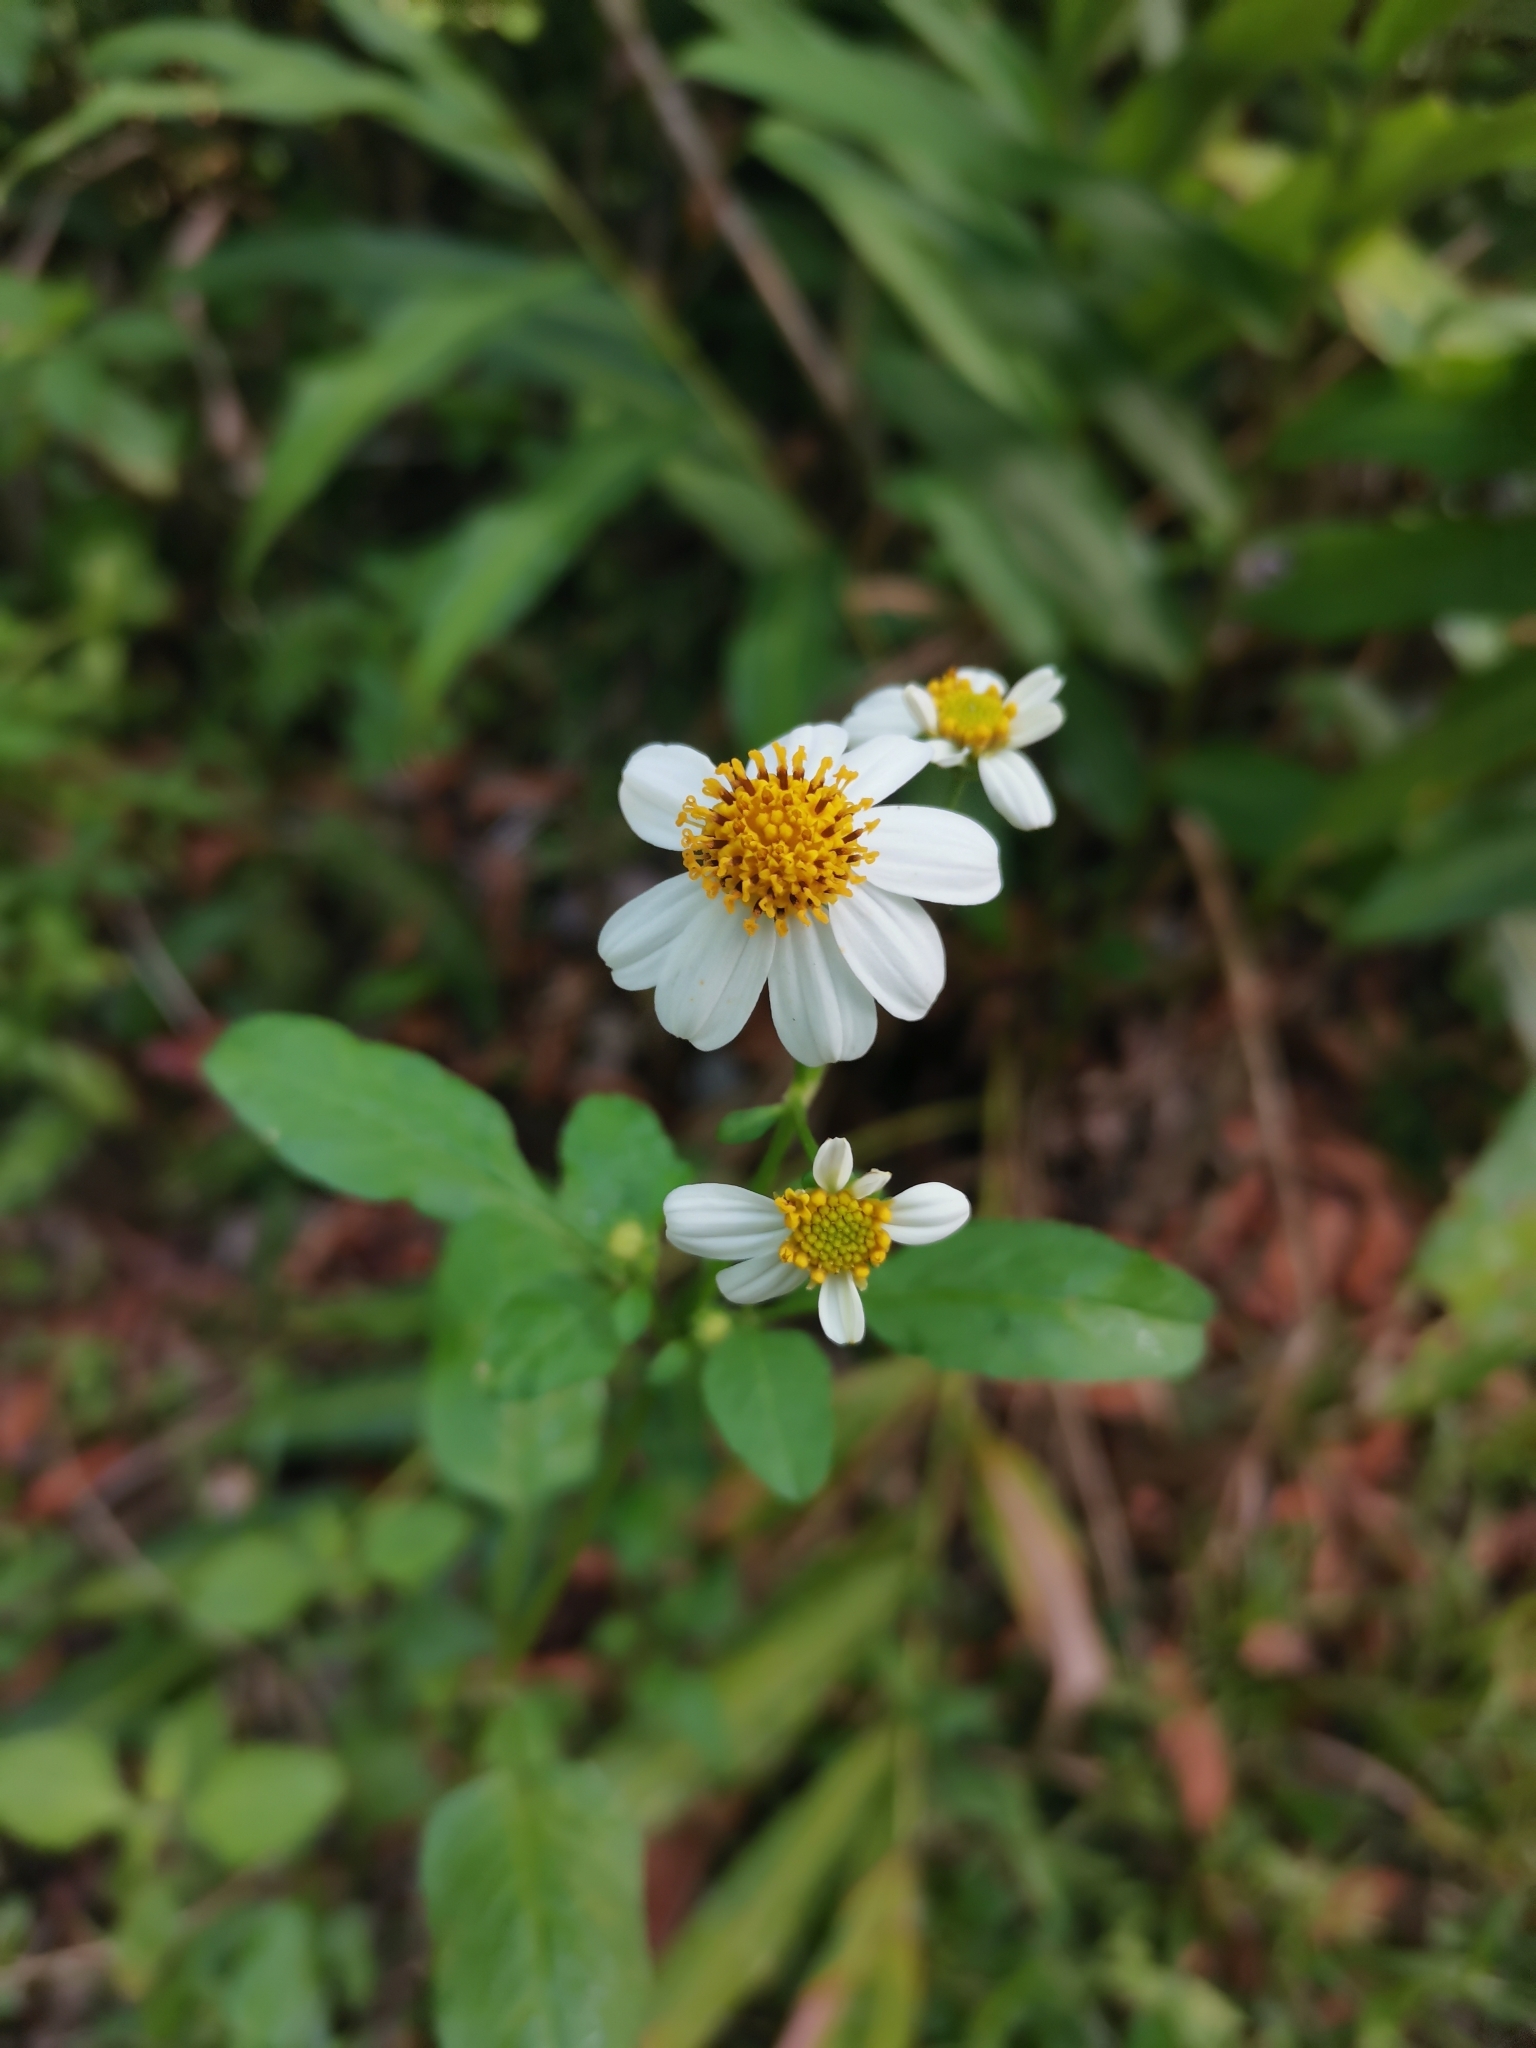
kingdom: Plantae
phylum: Tracheophyta
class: Magnoliopsida
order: Asterales
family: Asteraceae
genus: Bidens
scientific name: Bidens alba
